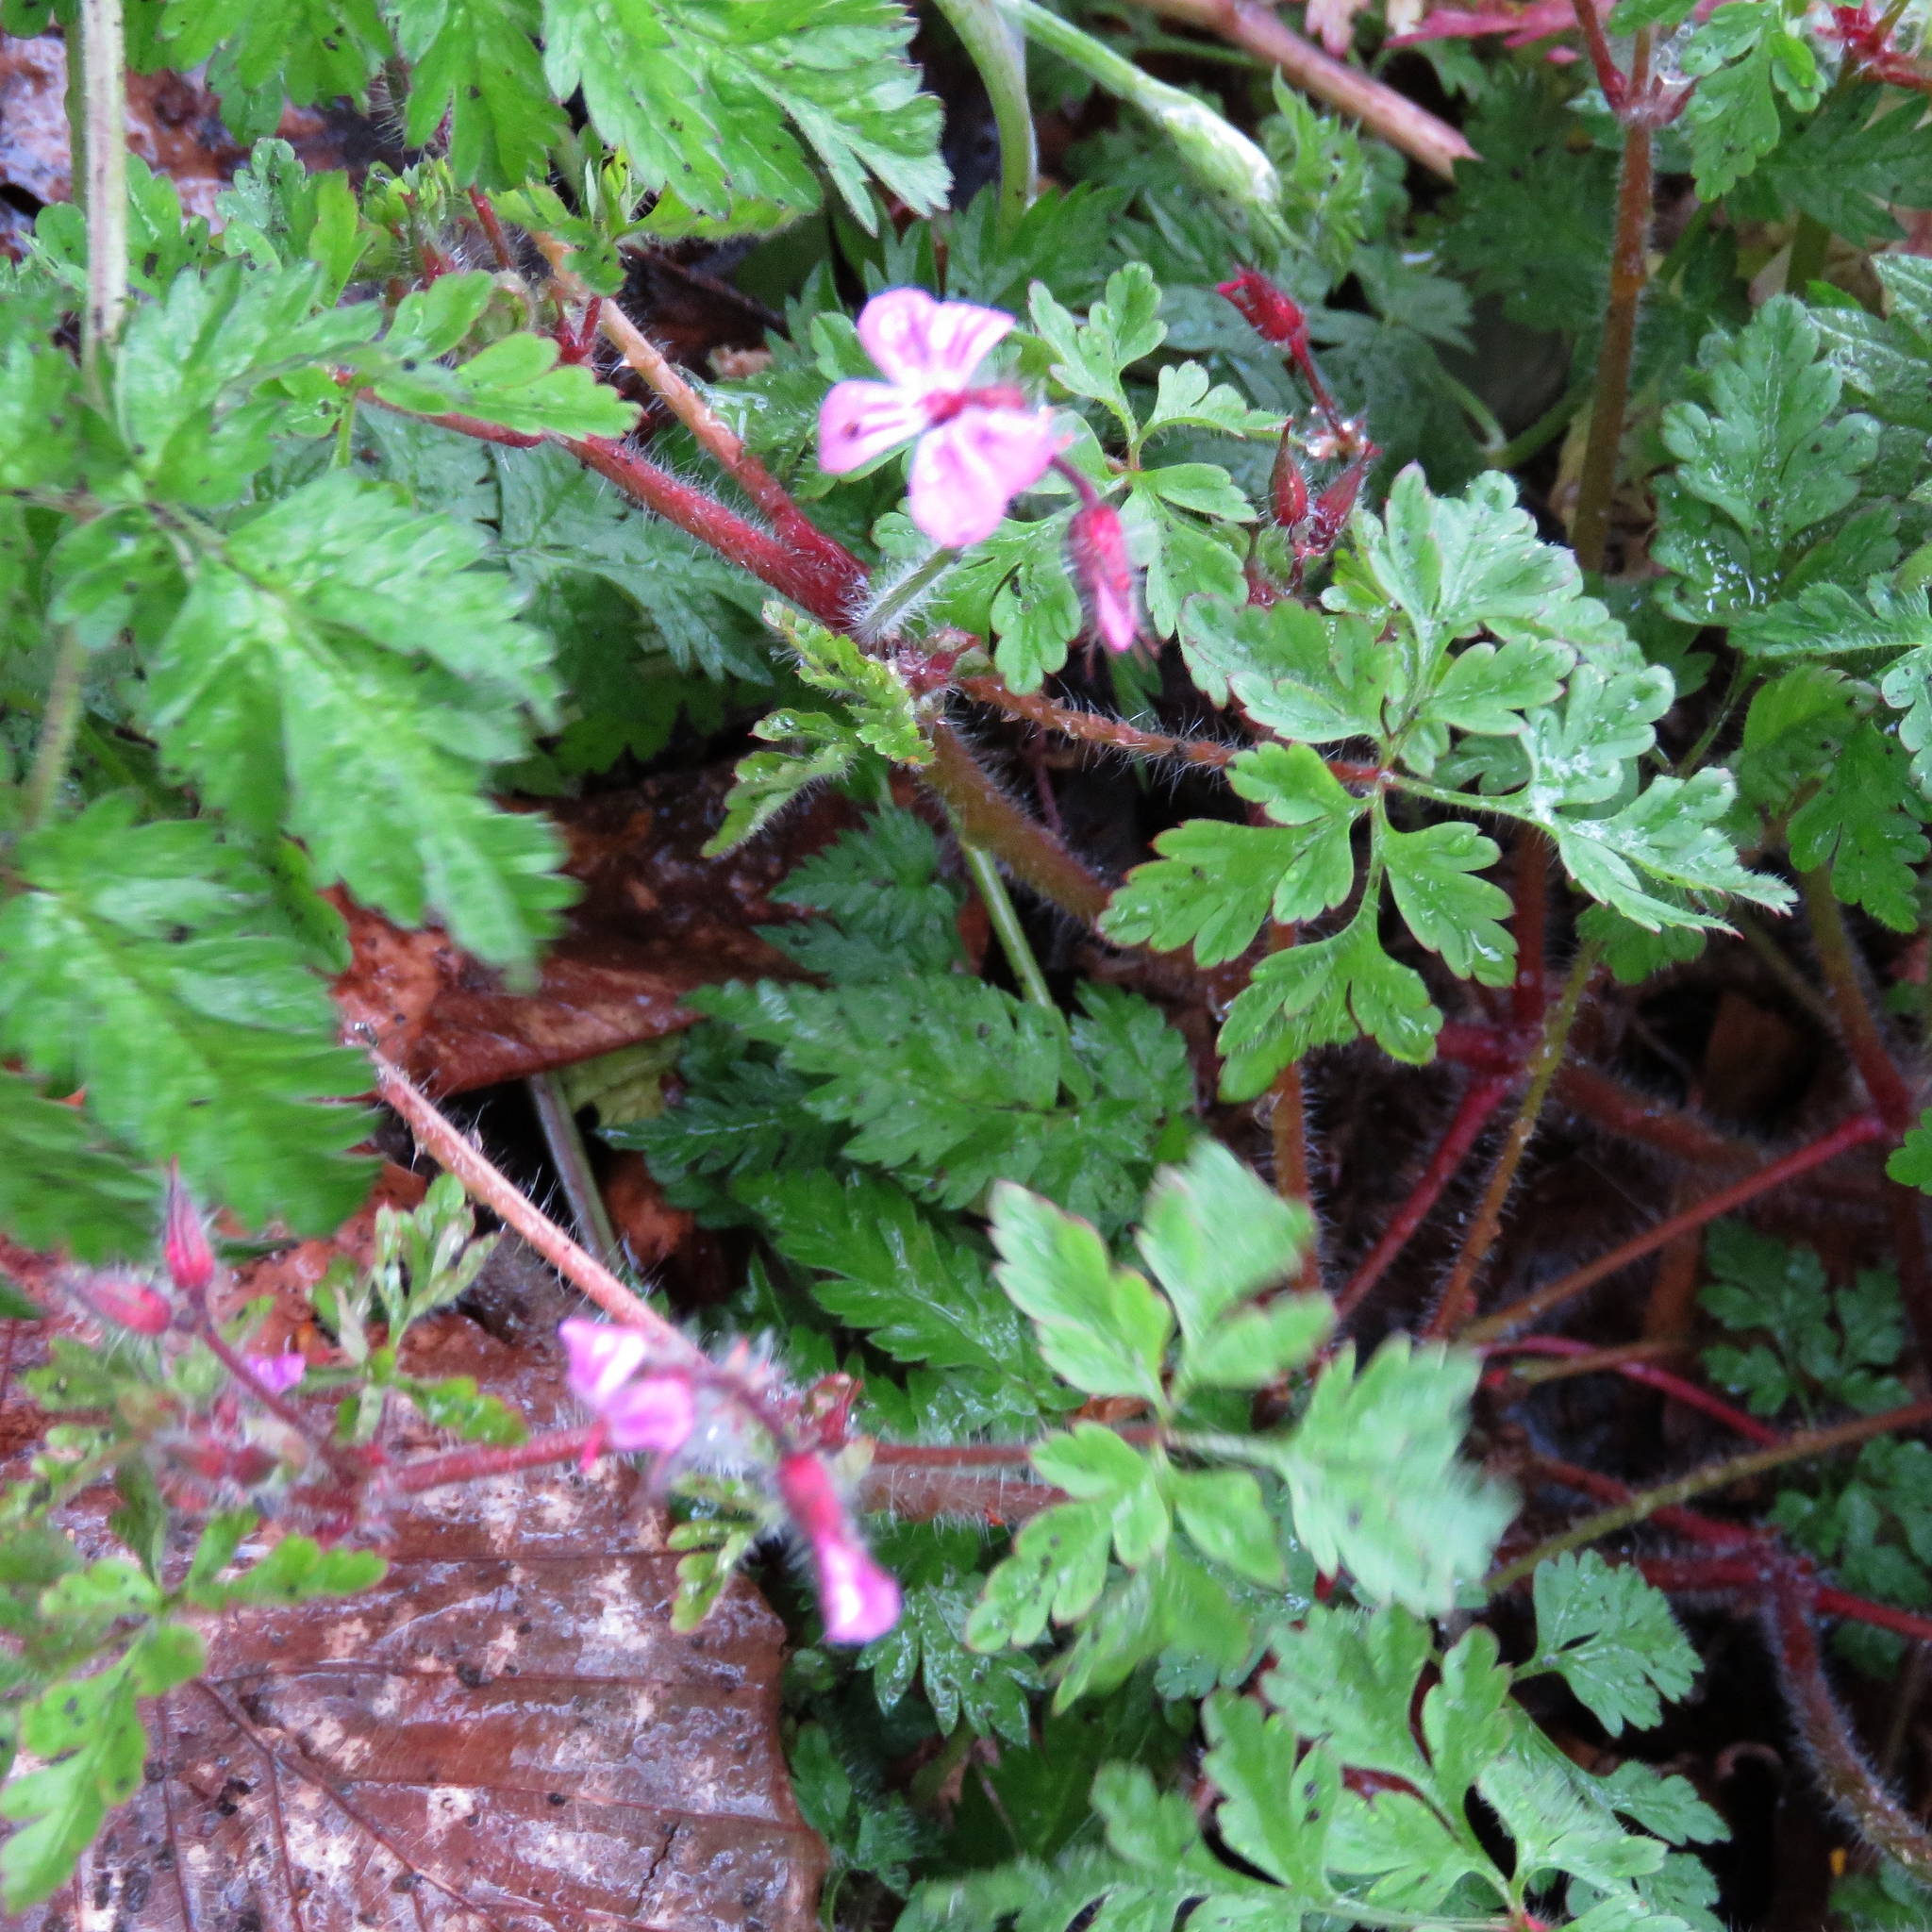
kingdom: Plantae
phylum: Tracheophyta
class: Magnoliopsida
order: Geraniales
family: Geraniaceae
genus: Geranium
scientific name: Geranium robertianum
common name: Herb-robert
